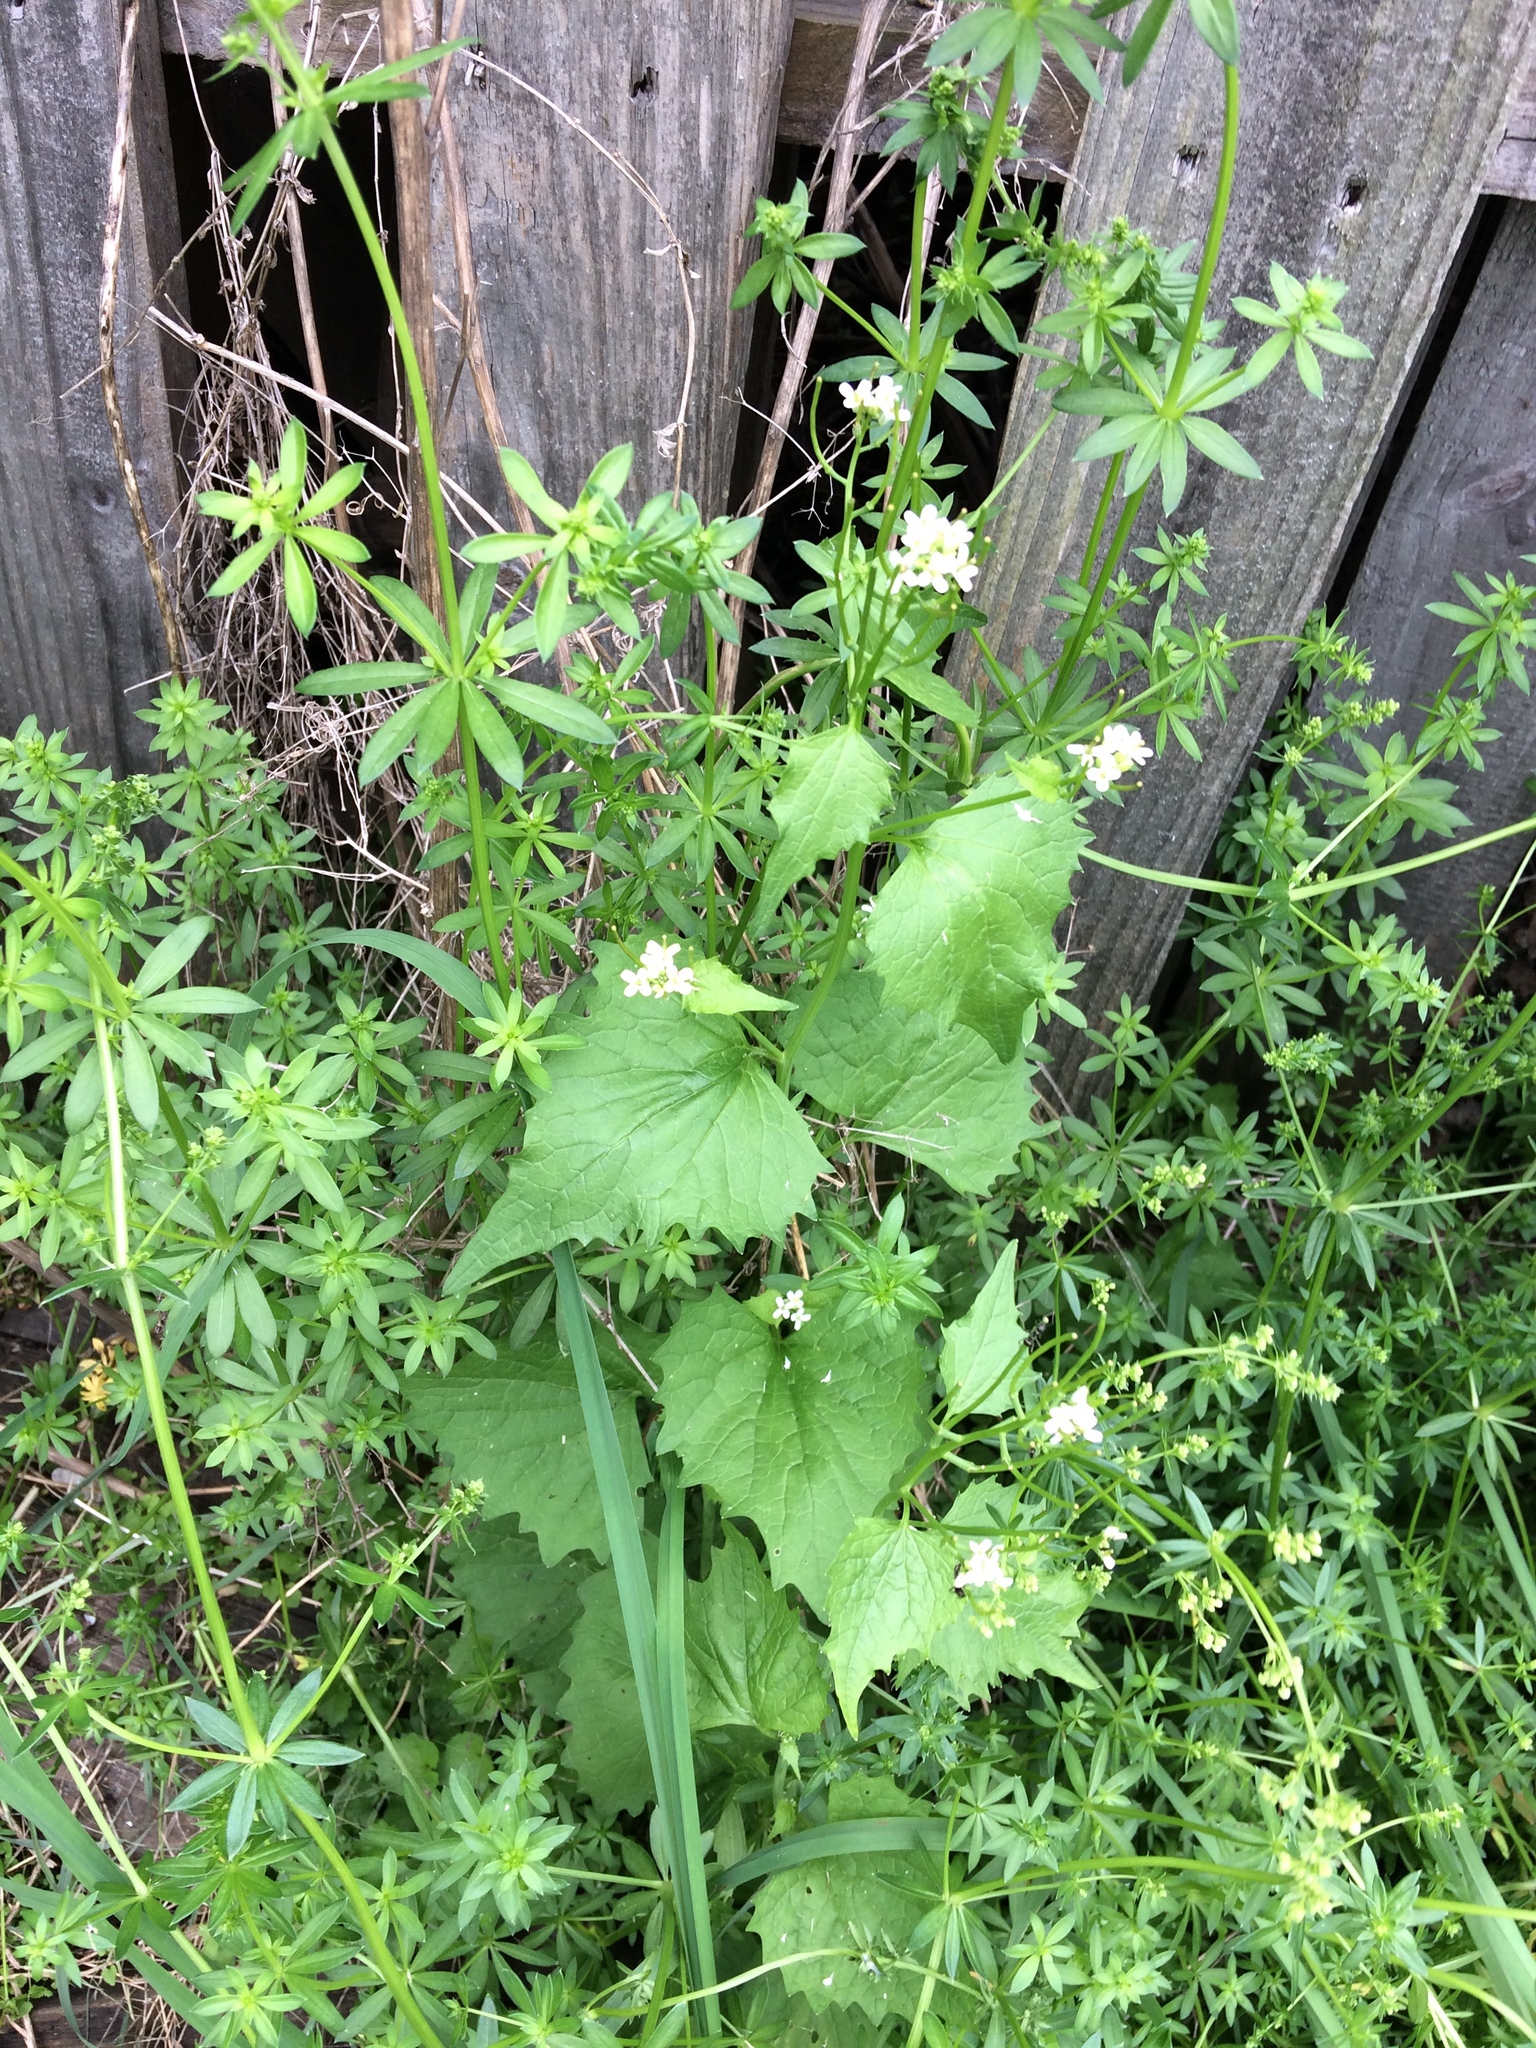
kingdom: Plantae
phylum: Tracheophyta
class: Magnoliopsida
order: Brassicales
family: Brassicaceae
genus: Alliaria
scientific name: Alliaria petiolata
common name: Garlic mustard
